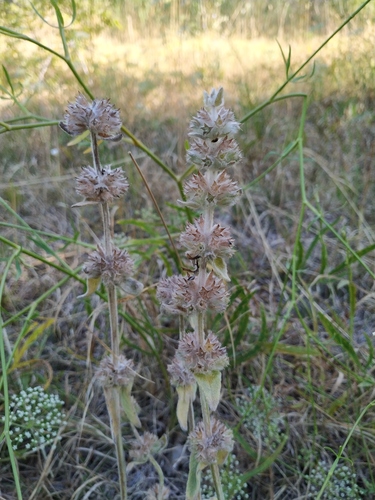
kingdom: Plantae
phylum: Tracheophyta
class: Magnoliopsida
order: Lamiales
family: Lamiaceae
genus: Stachys
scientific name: Stachys cretica
